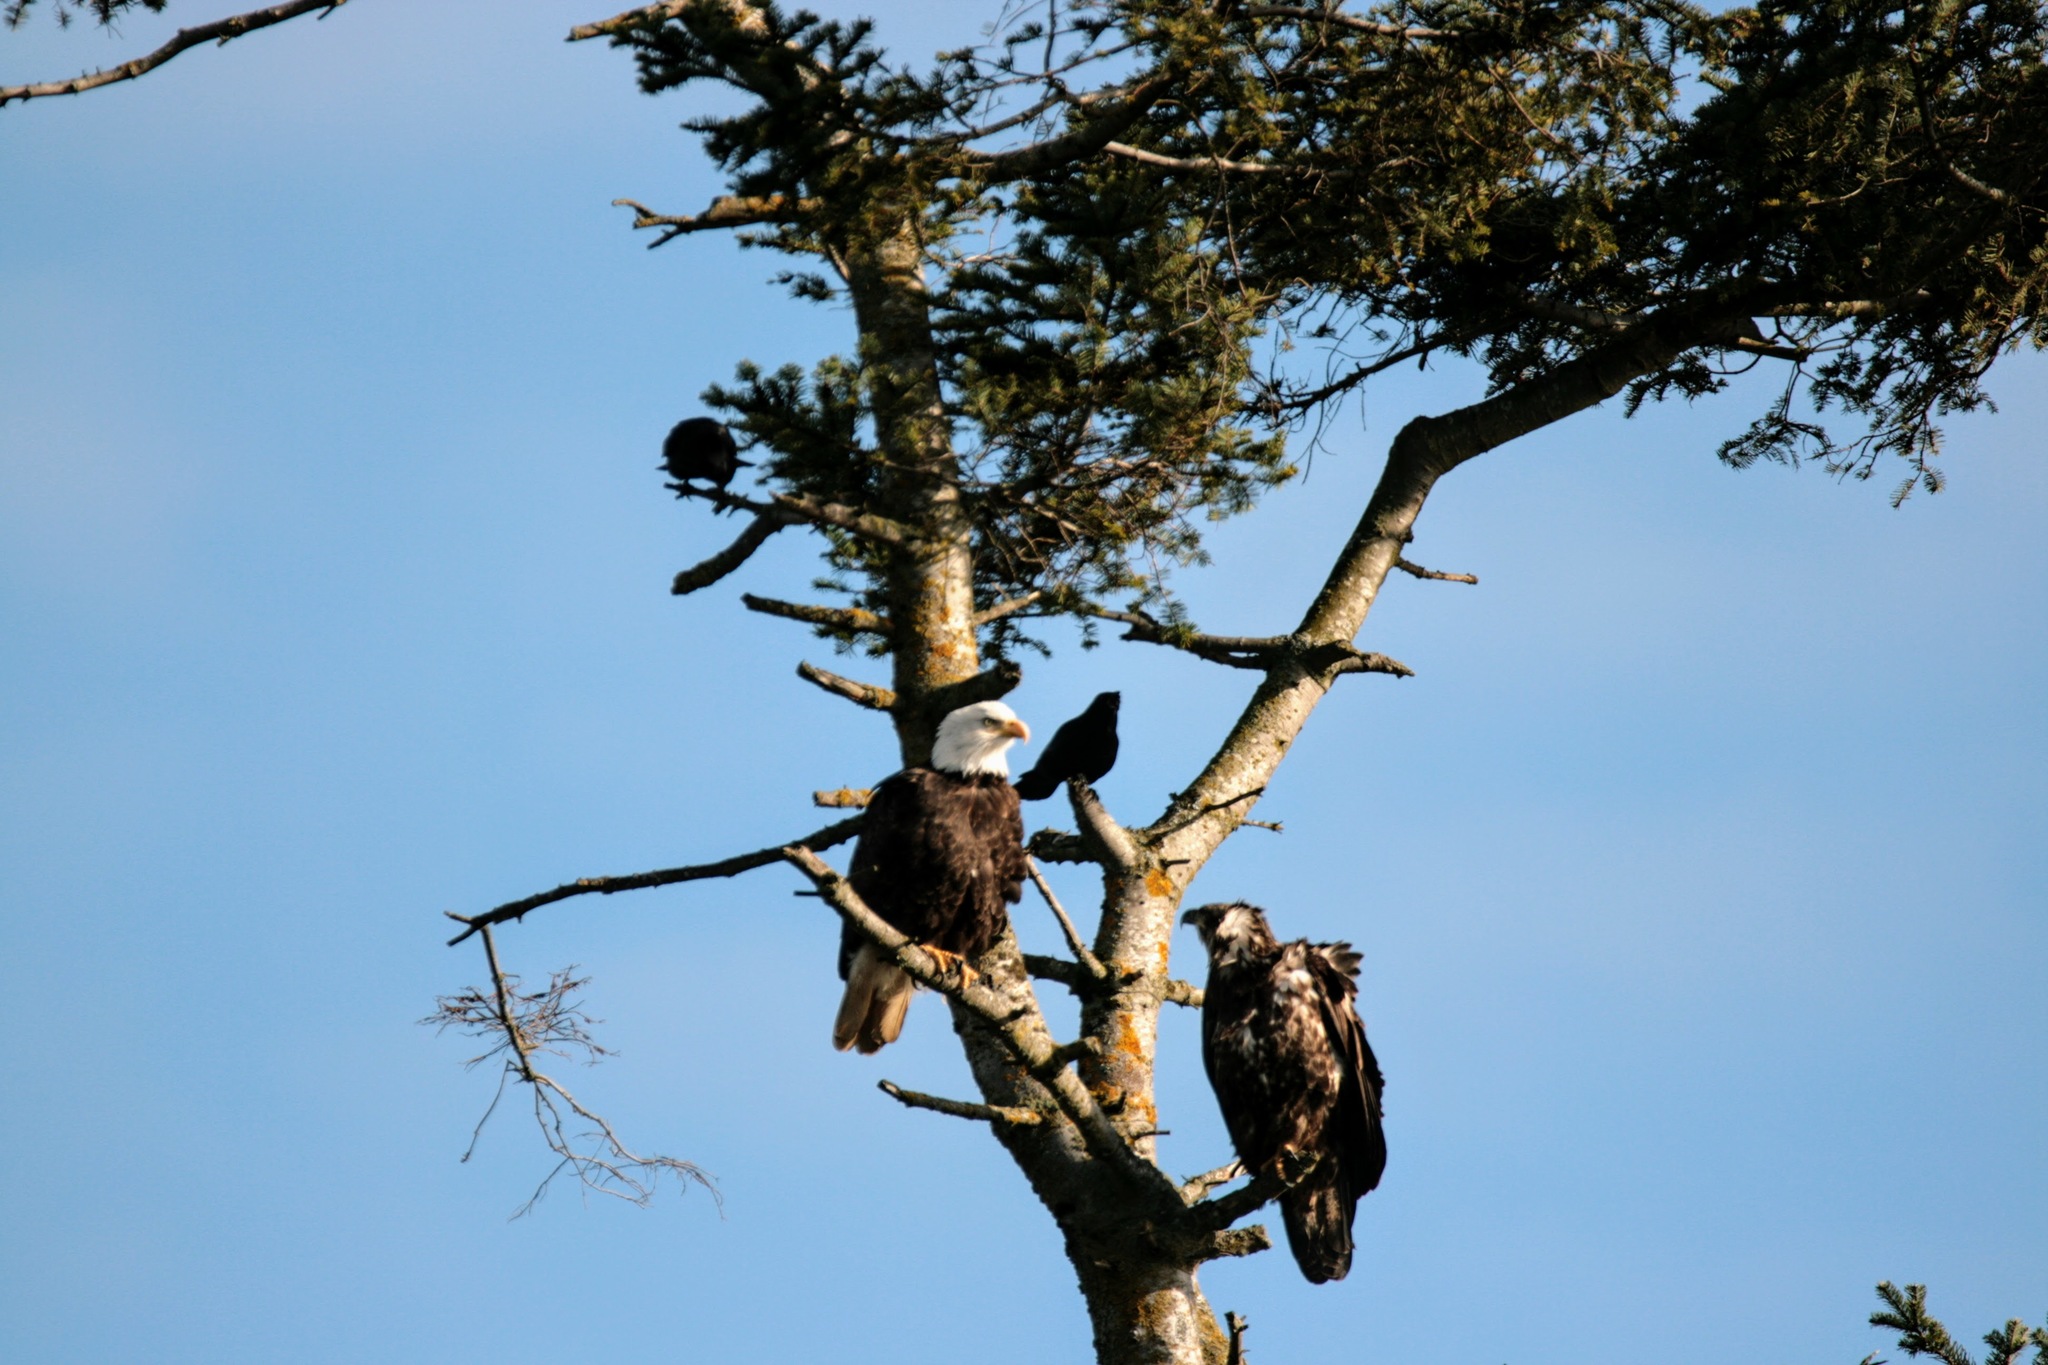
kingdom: Animalia
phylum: Chordata
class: Aves
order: Accipitriformes
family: Accipitridae
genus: Haliaeetus
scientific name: Haliaeetus leucocephalus
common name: Bald eagle
